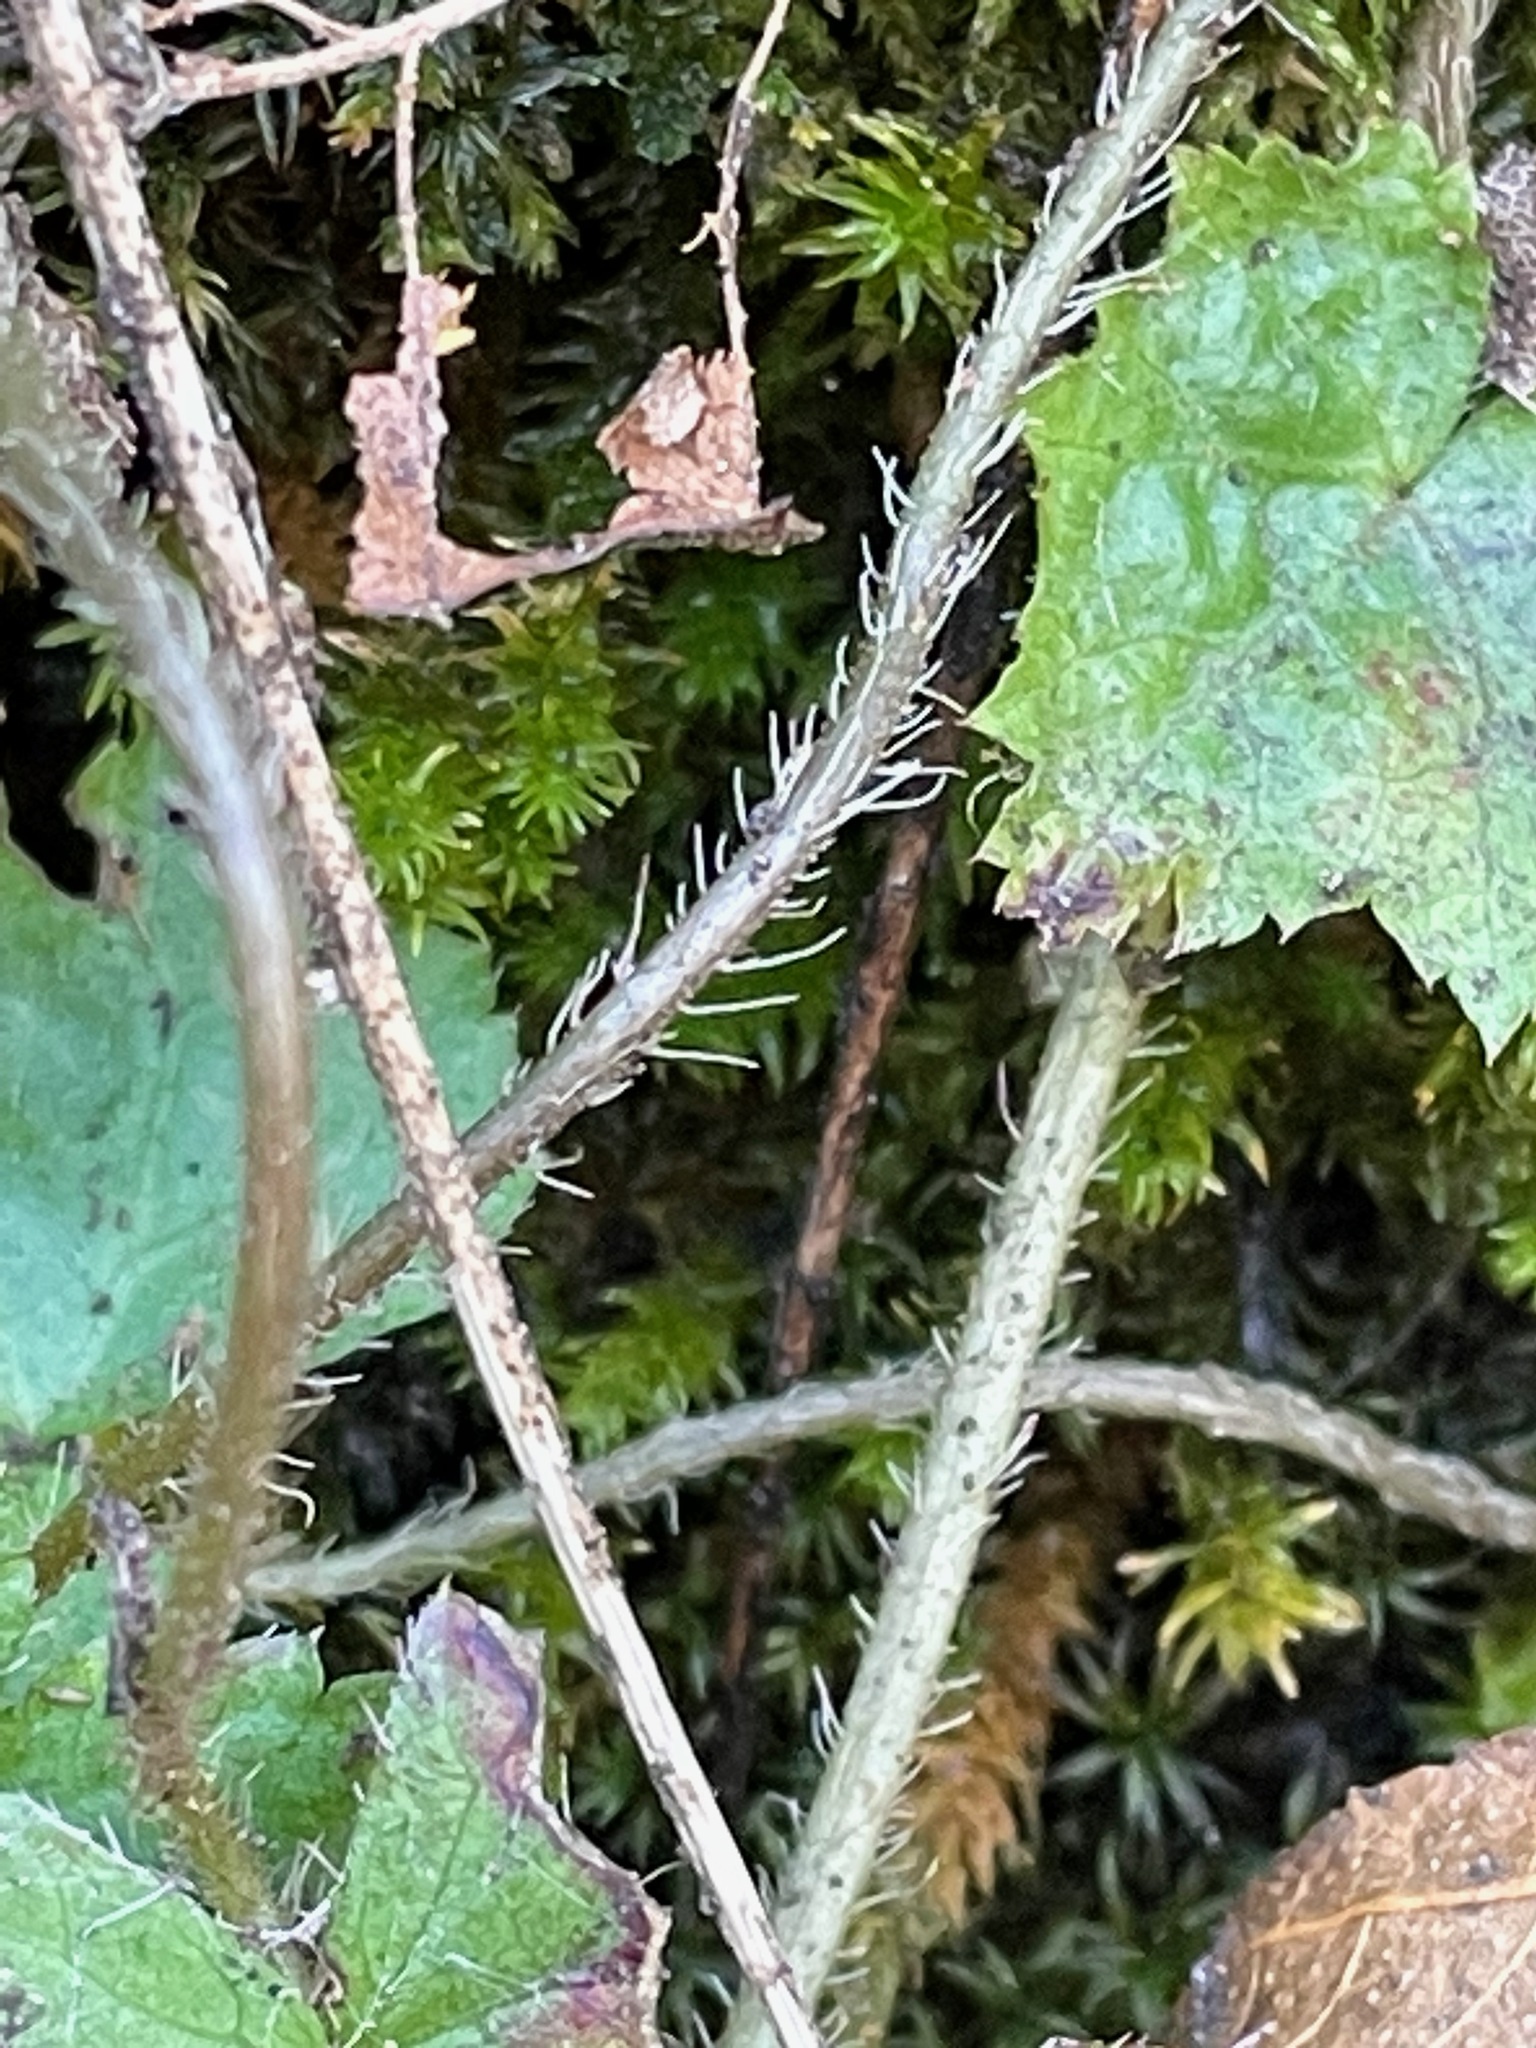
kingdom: Plantae
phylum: Tracheophyta
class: Magnoliopsida
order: Saxifragales
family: Saxifragaceae
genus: Mitella
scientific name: Mitella diphylla
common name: Coolwort
